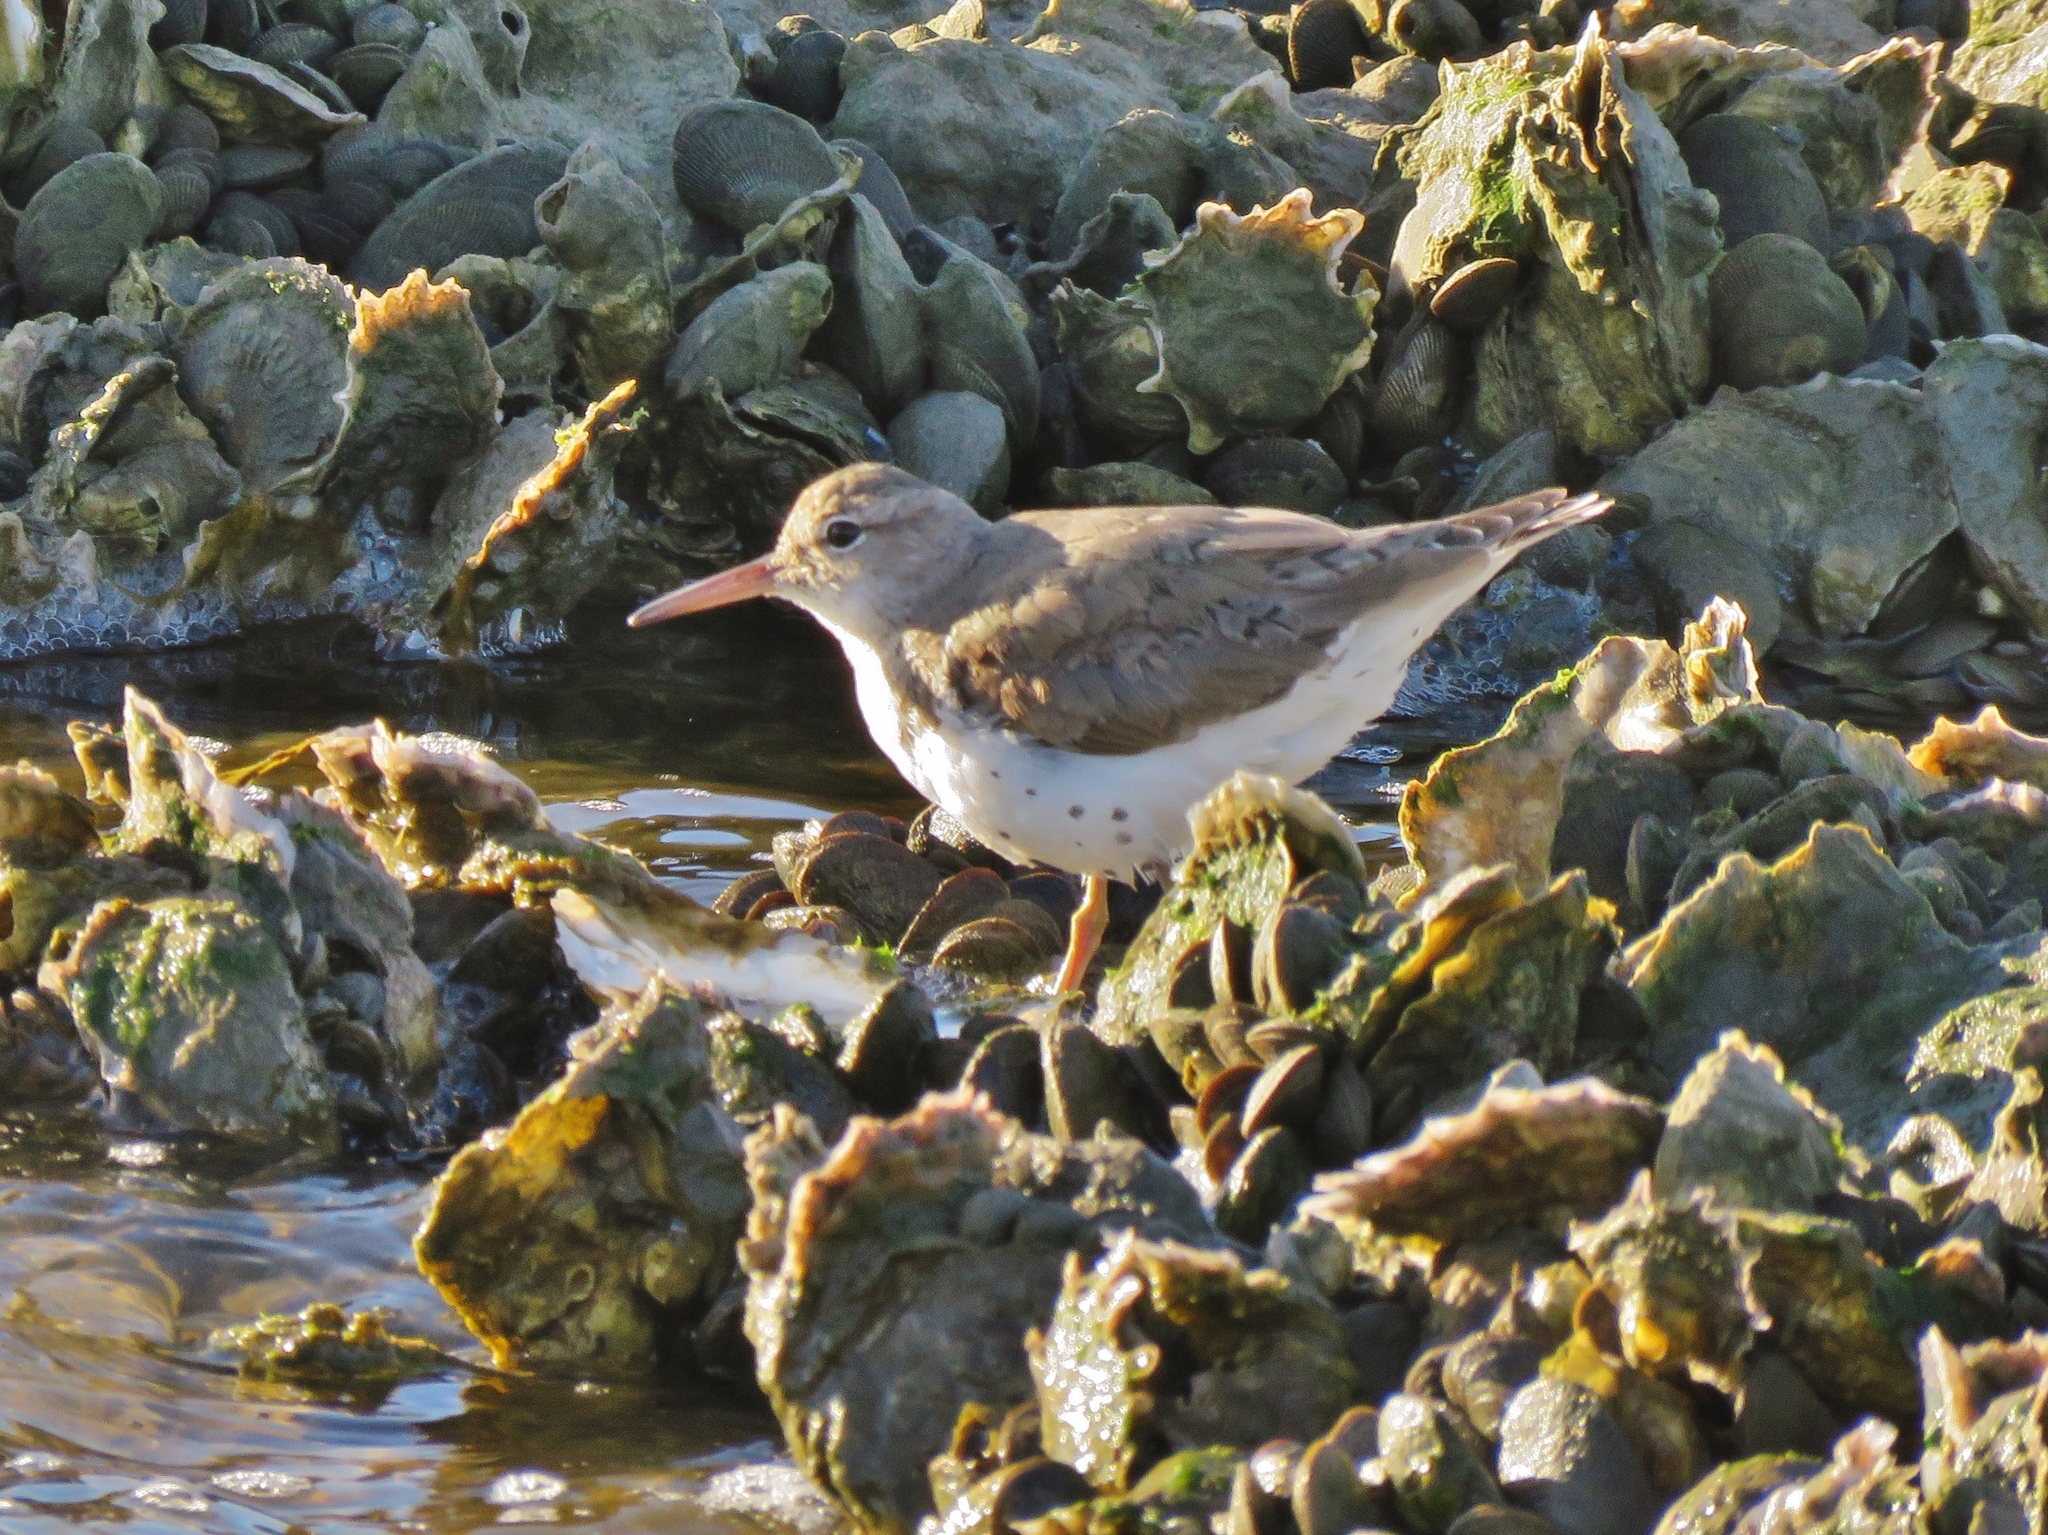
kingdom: Animalia
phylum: Chordata
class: Aves
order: Charadriiformes
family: Scolopacidae
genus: Actitis
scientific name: Actitis macularius
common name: Spotted sandpiper
